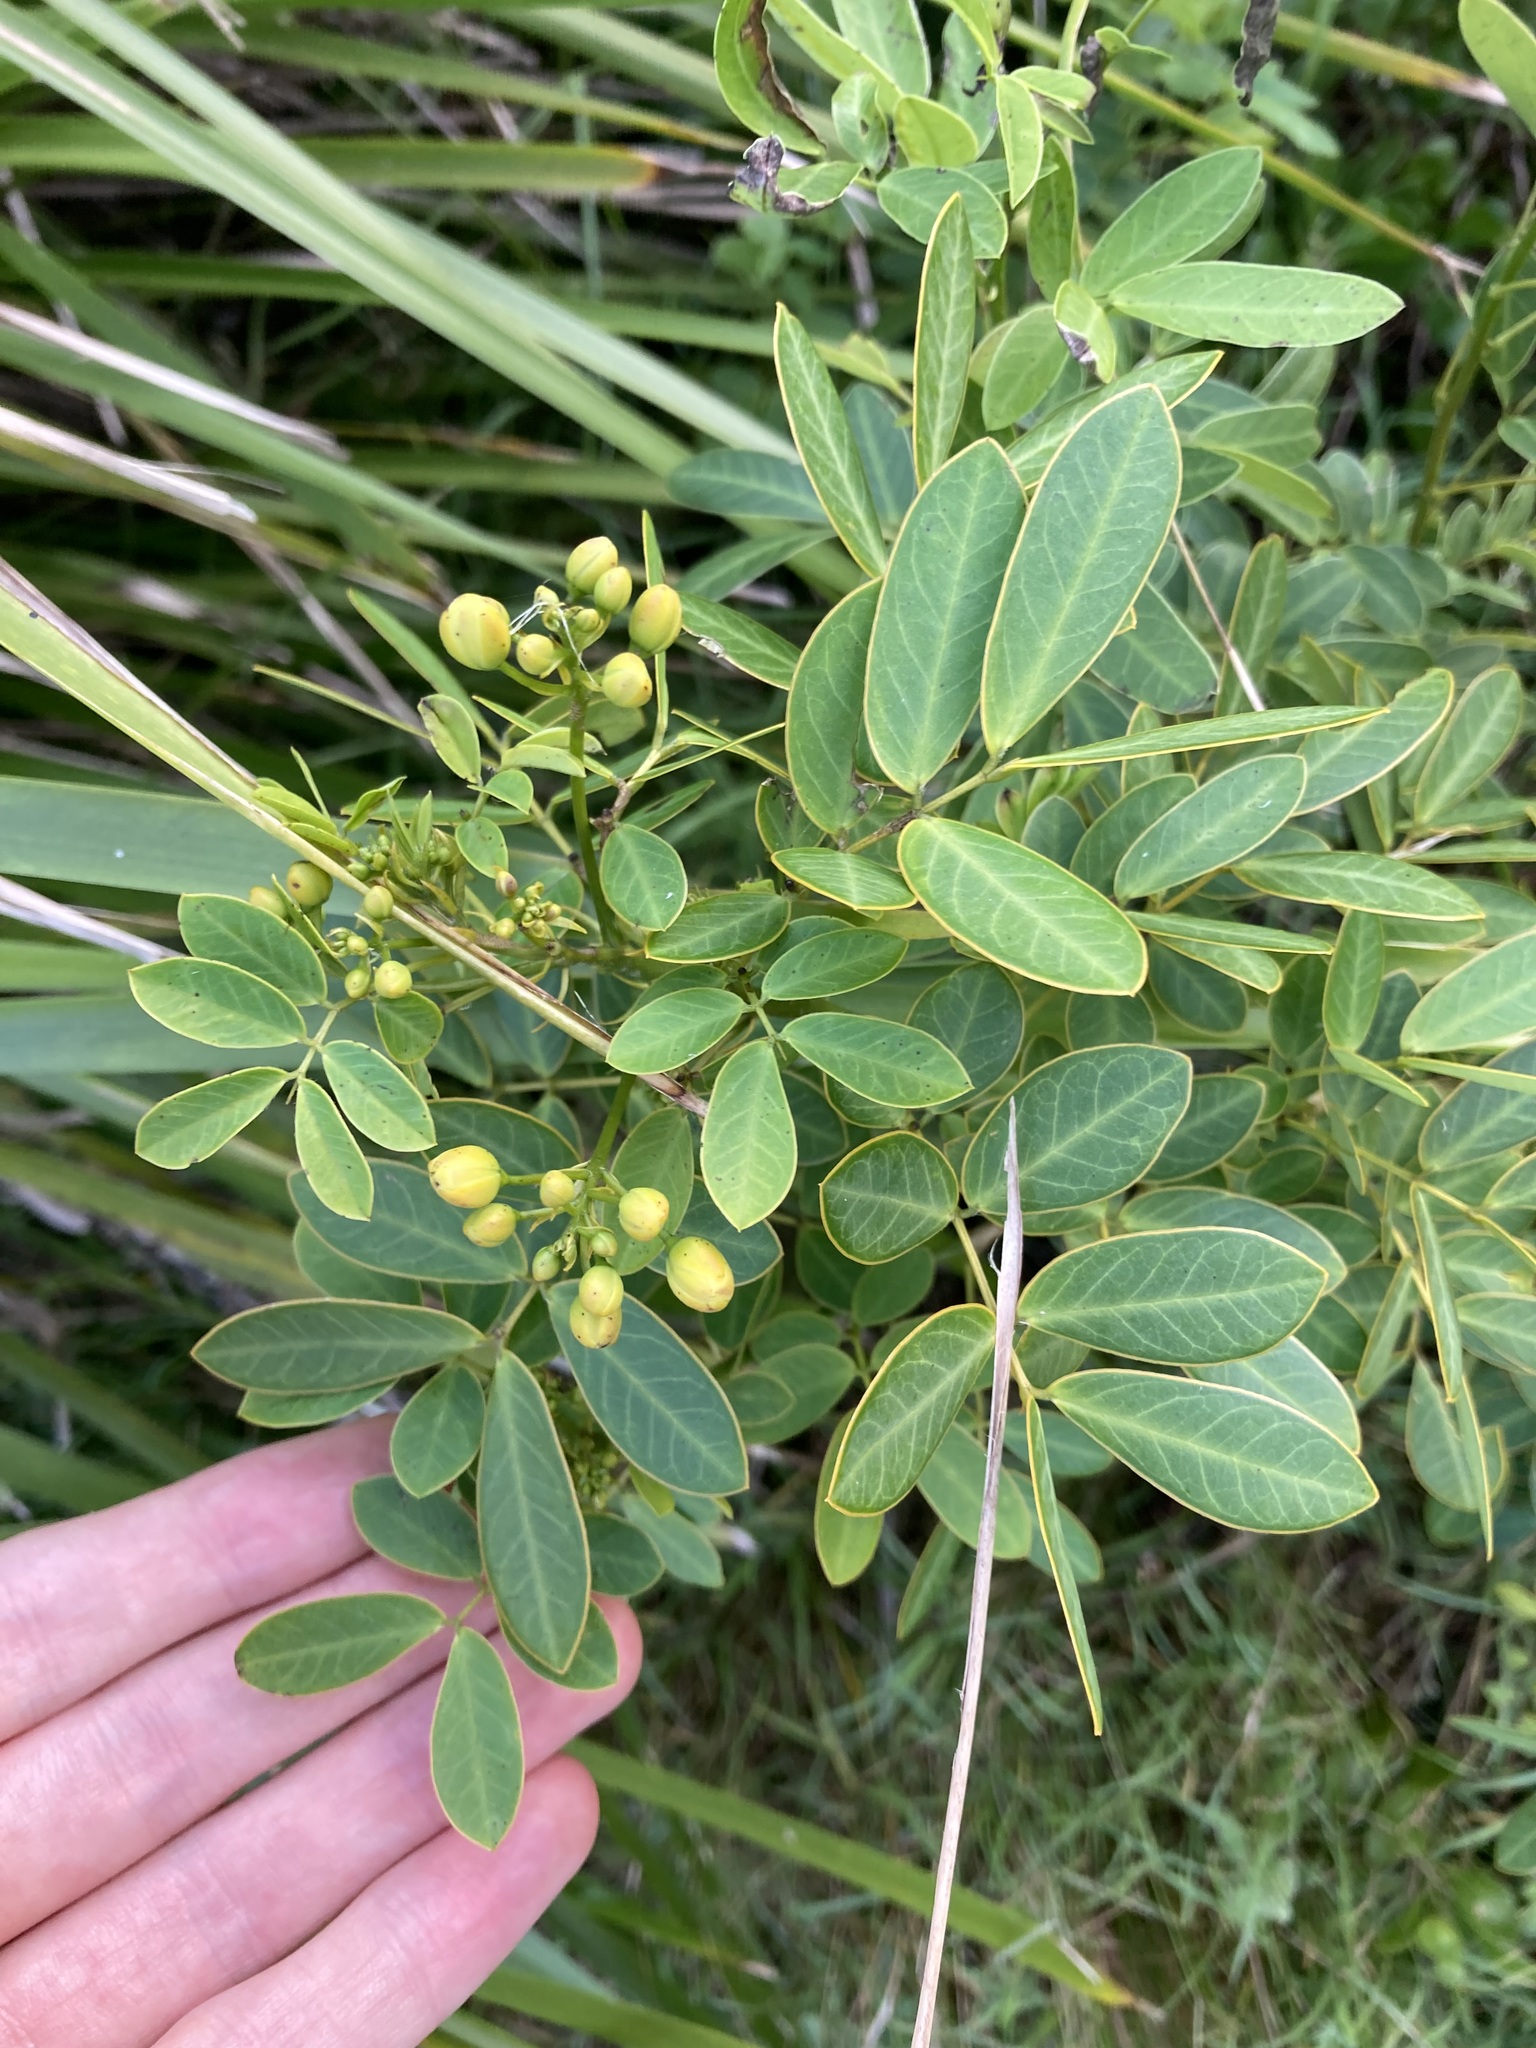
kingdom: Plantae
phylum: Tracheophyta
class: Magnoliopsida
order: Fabales
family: Fabaceae
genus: Senna
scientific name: Senna pendula
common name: Easter cassia
